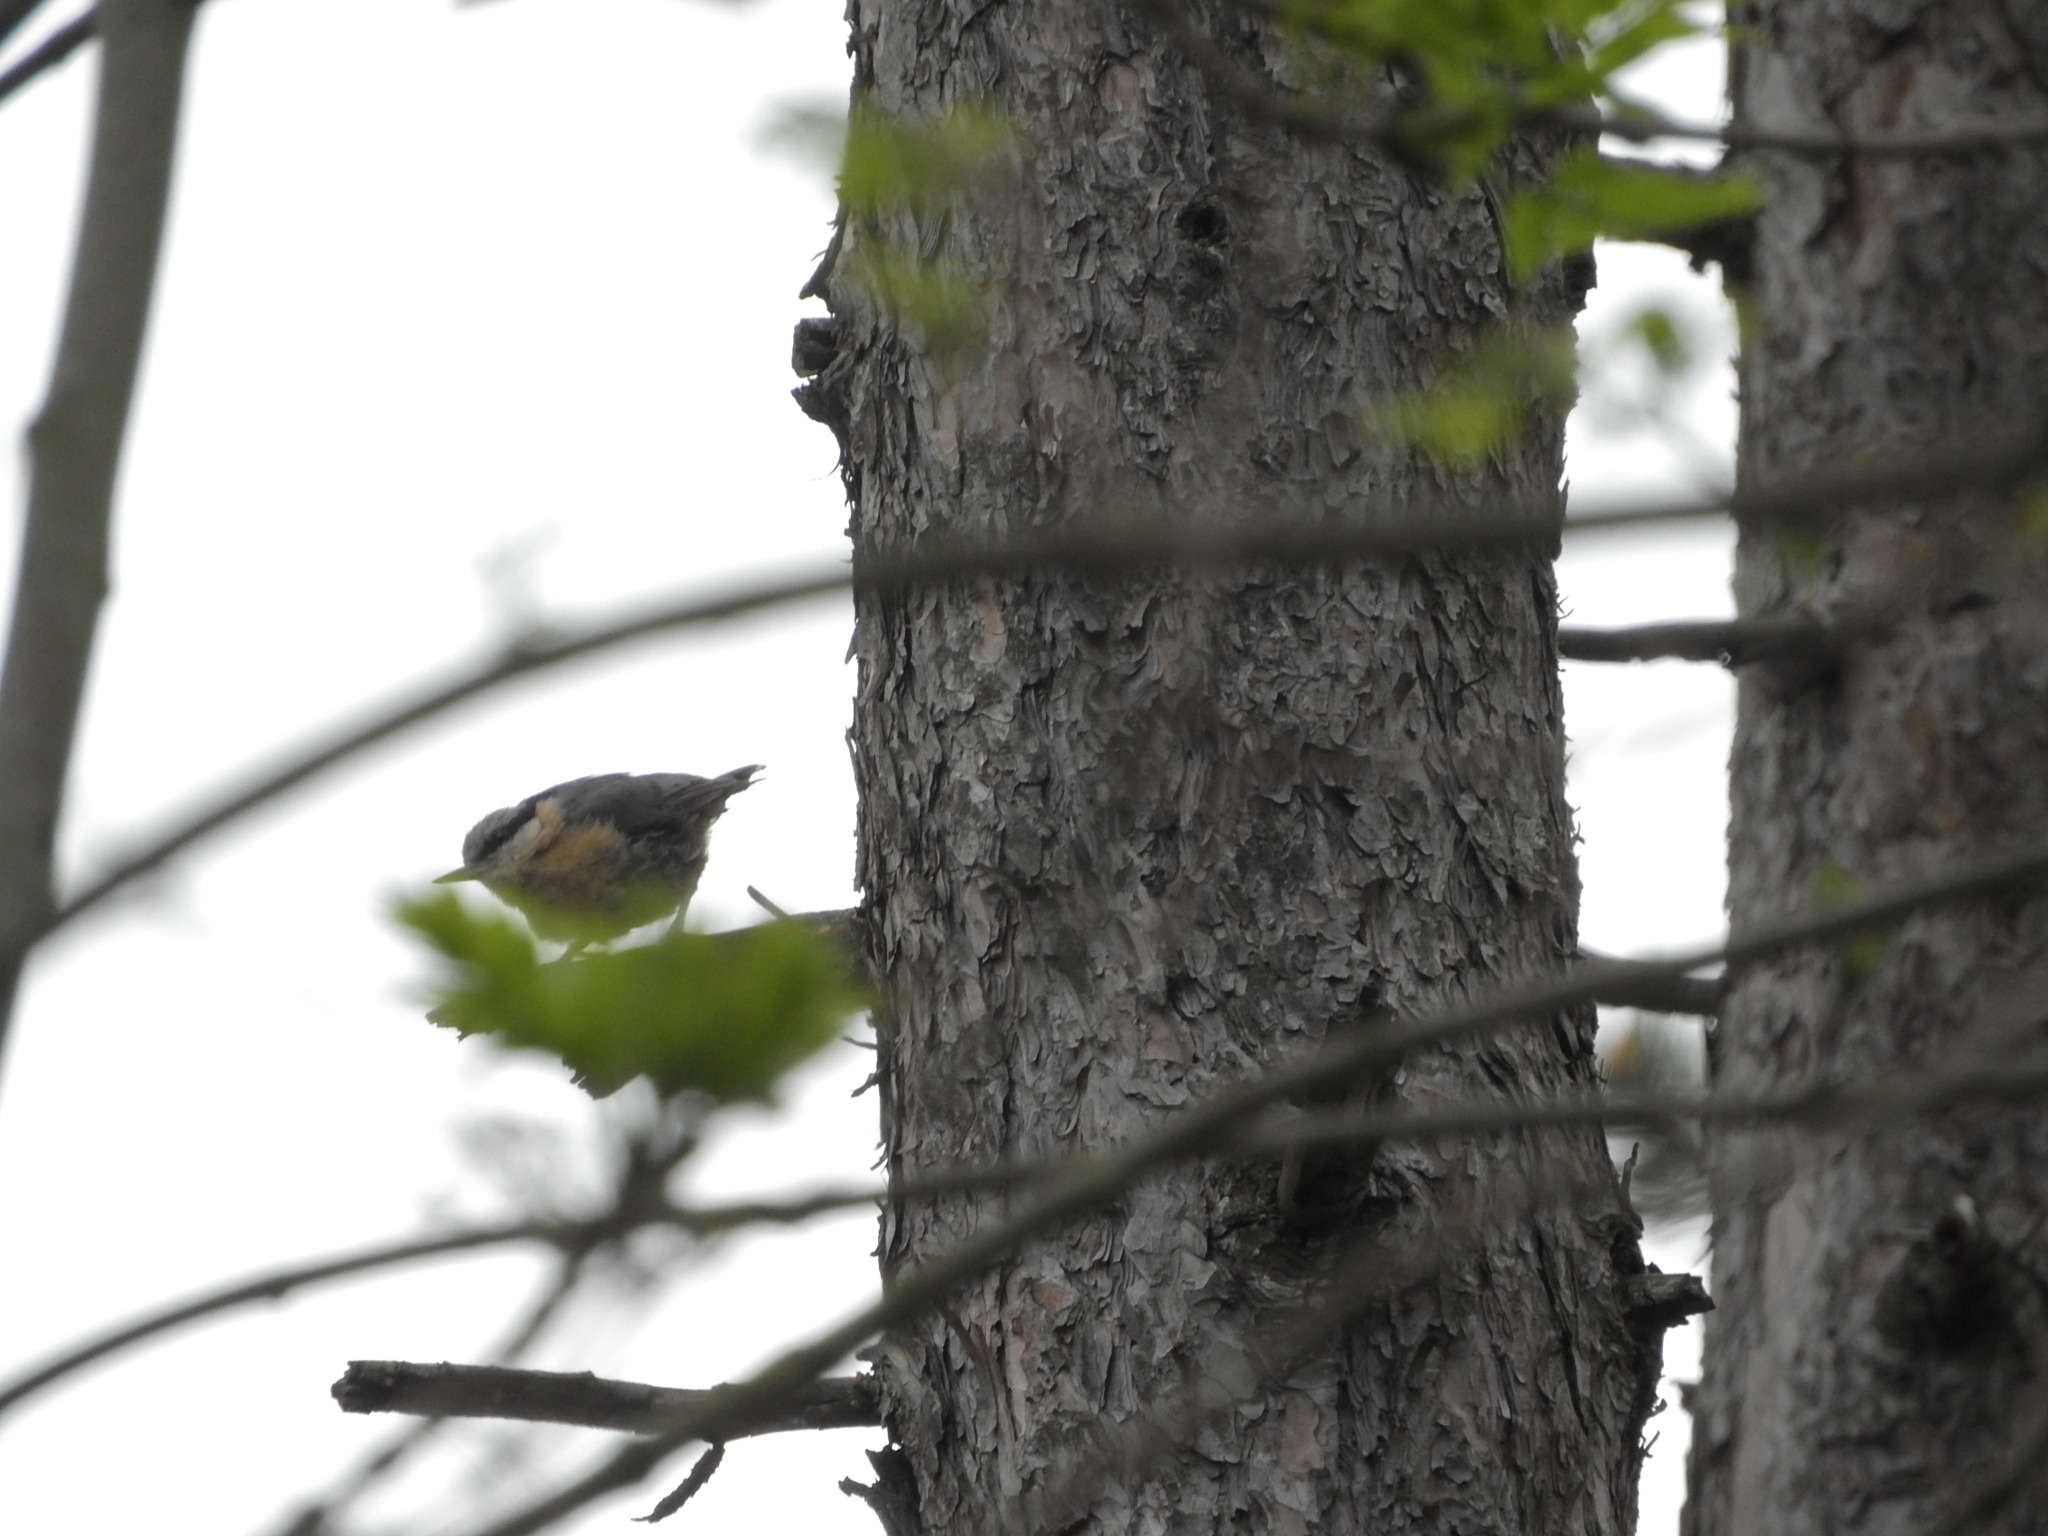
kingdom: Animalia
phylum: Chordata
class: Aves
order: Passeriformes
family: Sittidae
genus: Sitta
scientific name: Sitta europaea
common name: Eurasian nuthatch
